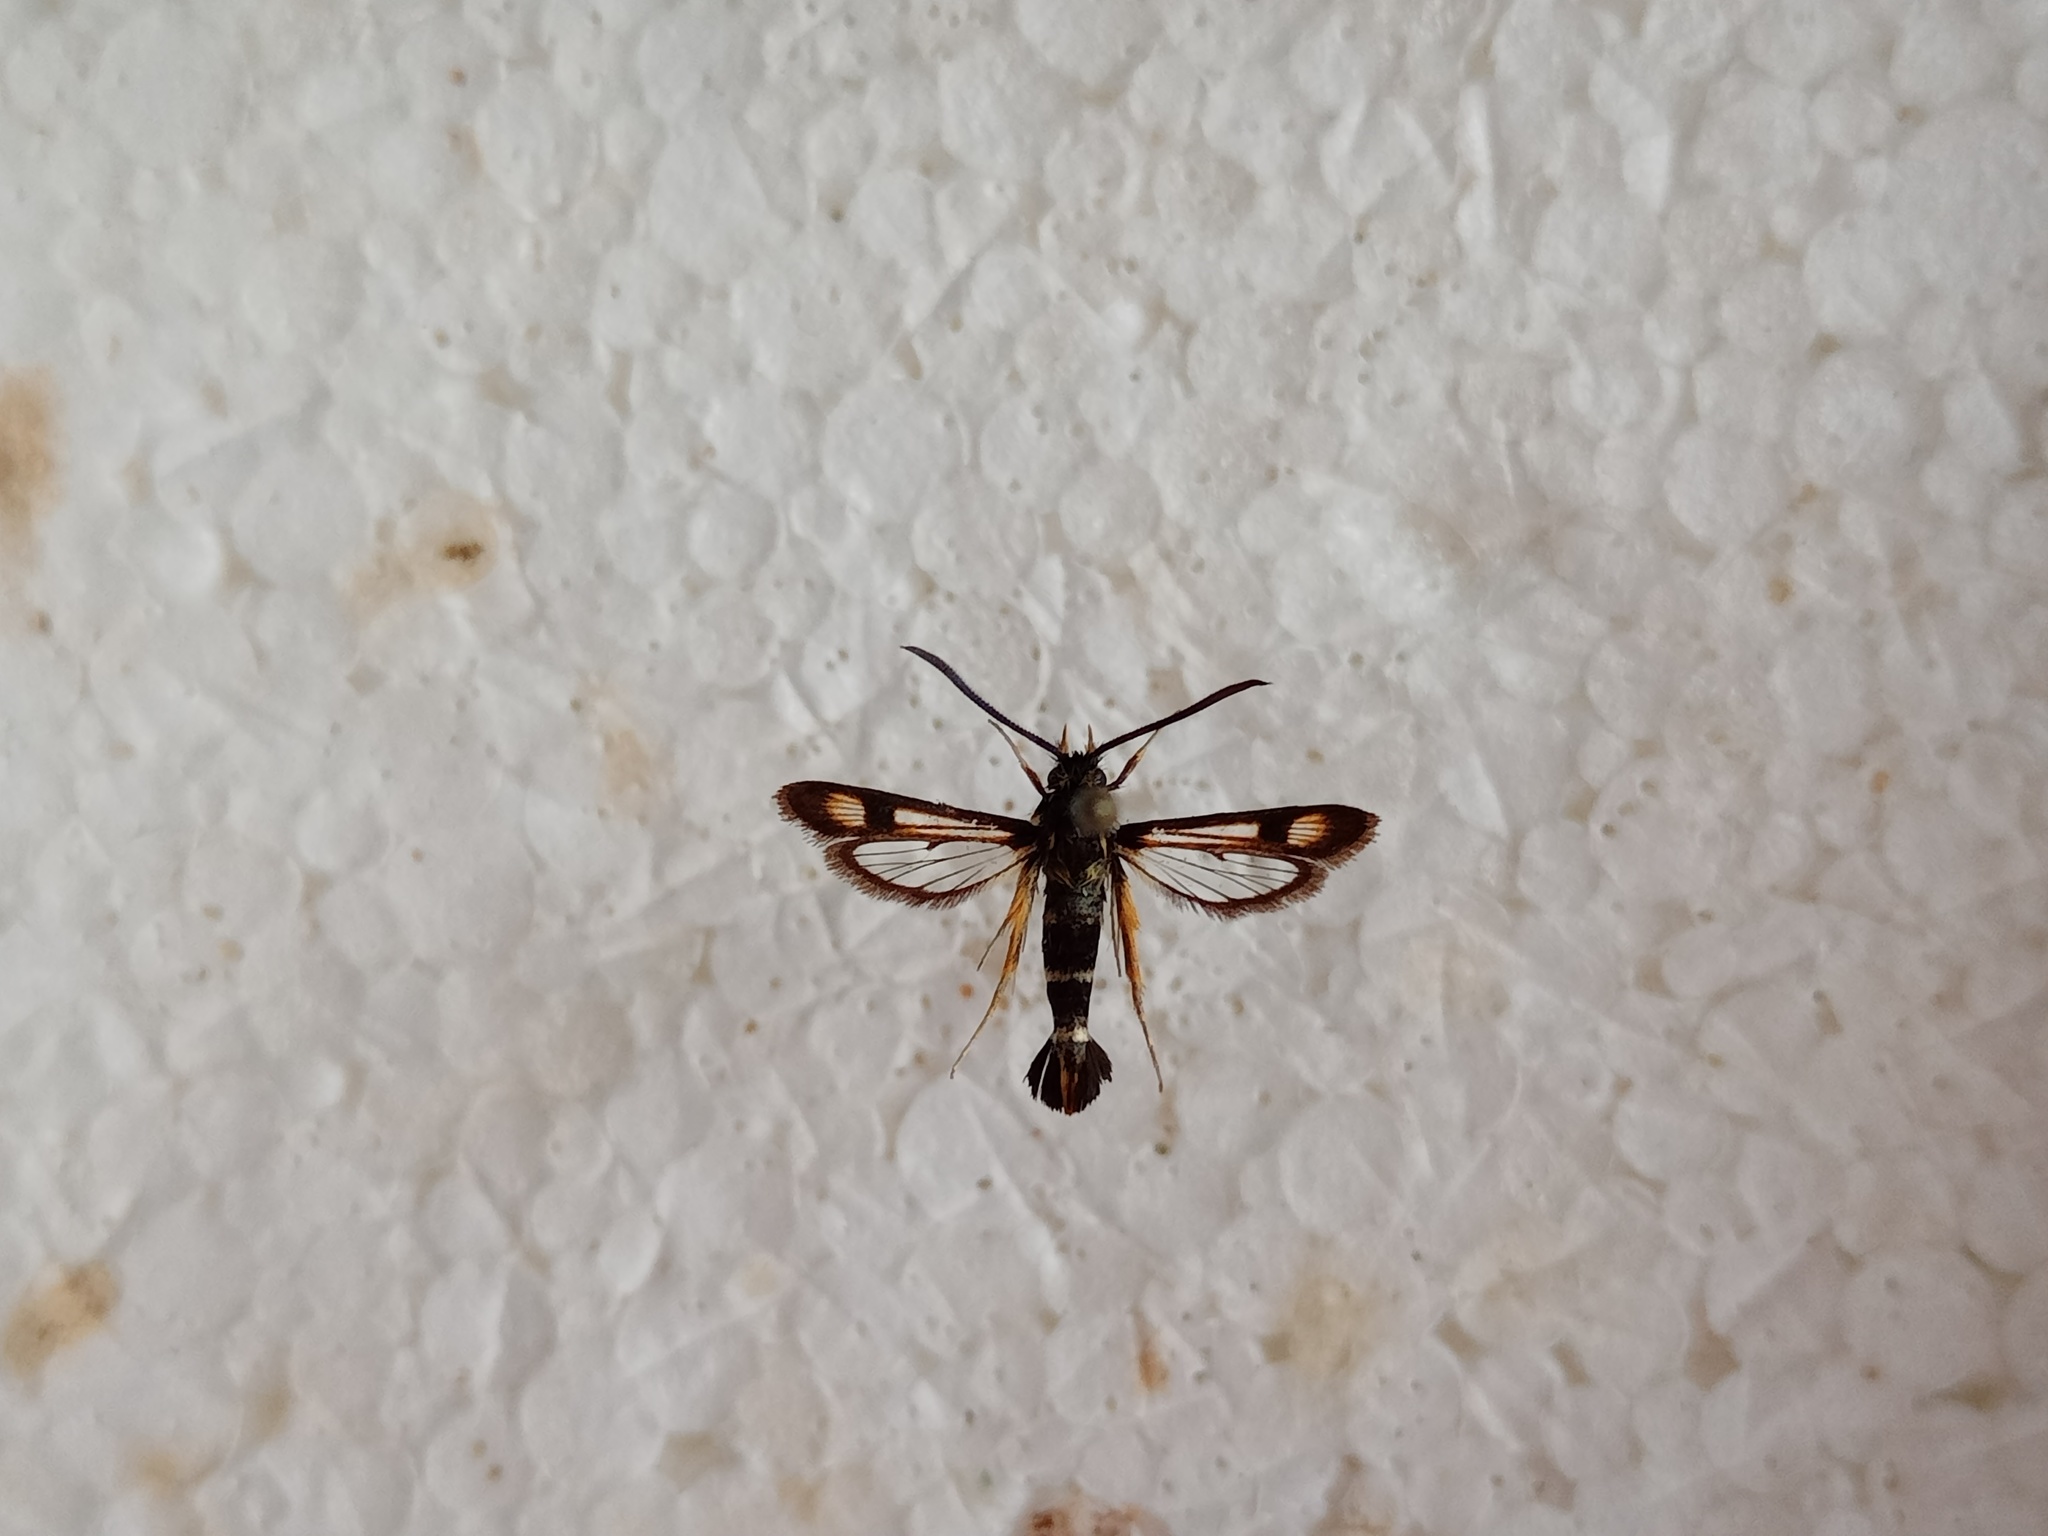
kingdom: Animalia
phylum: Arthropoda
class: Insecta
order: Lepidoptera
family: Sesiidae
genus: Pyropteron
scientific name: Pyropteron minianiformis
